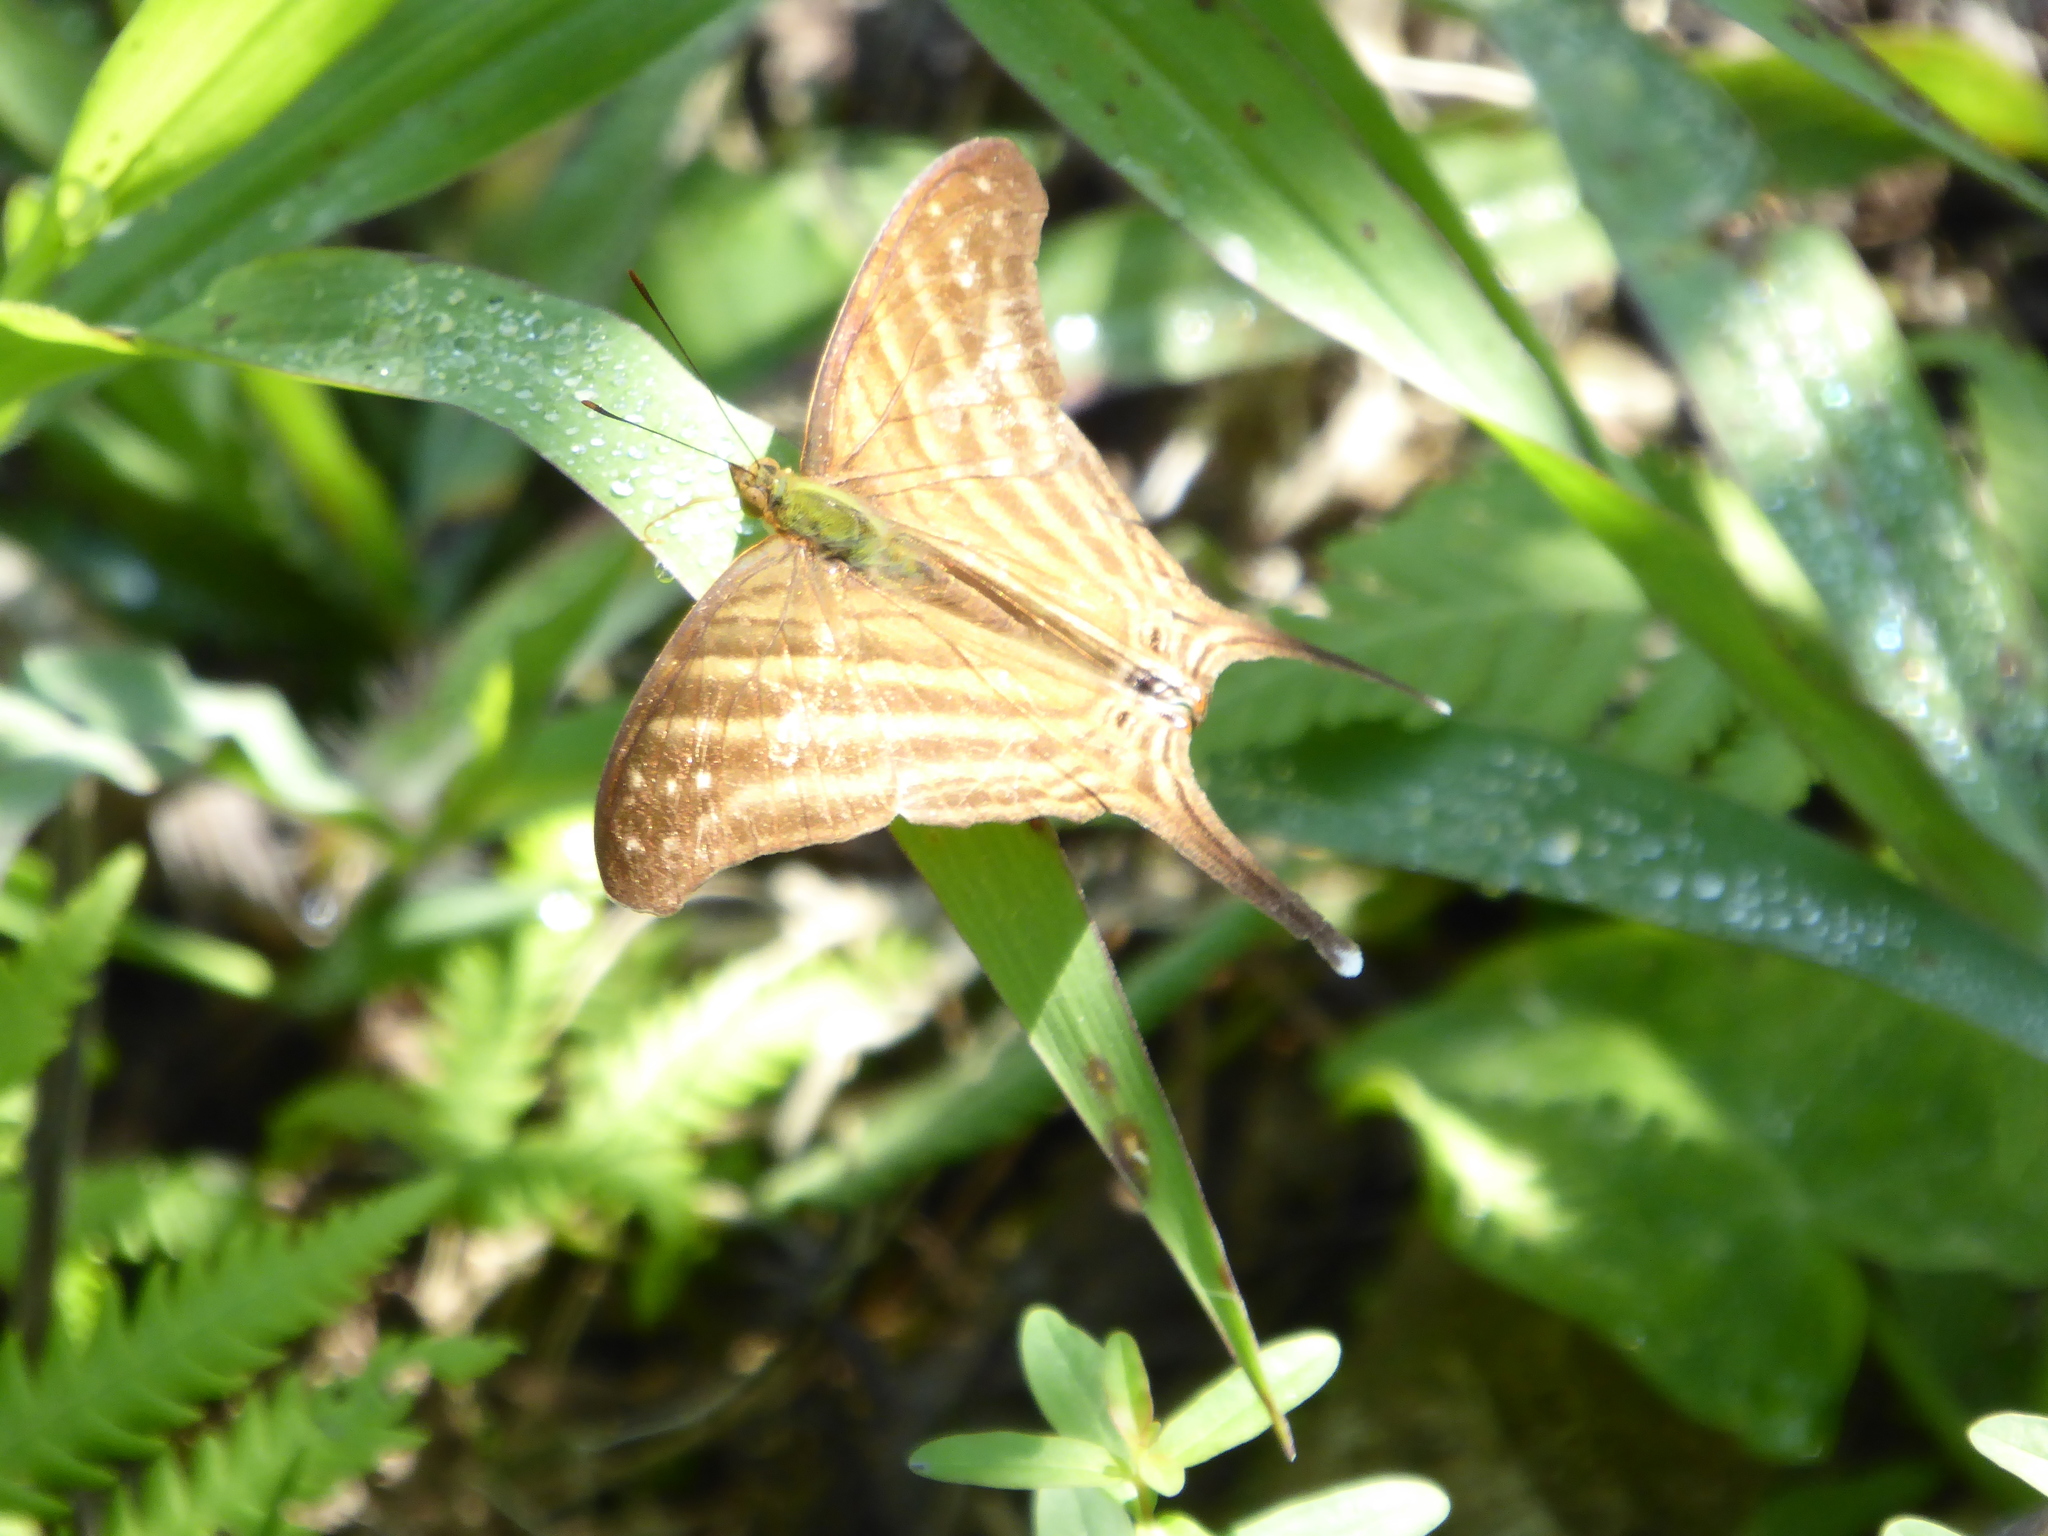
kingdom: Animalia
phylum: Arthropoda
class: Insecta
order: Lepidoptera
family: Nymphalidae
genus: Marpesia
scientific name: Marpesia chiron
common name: Many-banded daggerwing
